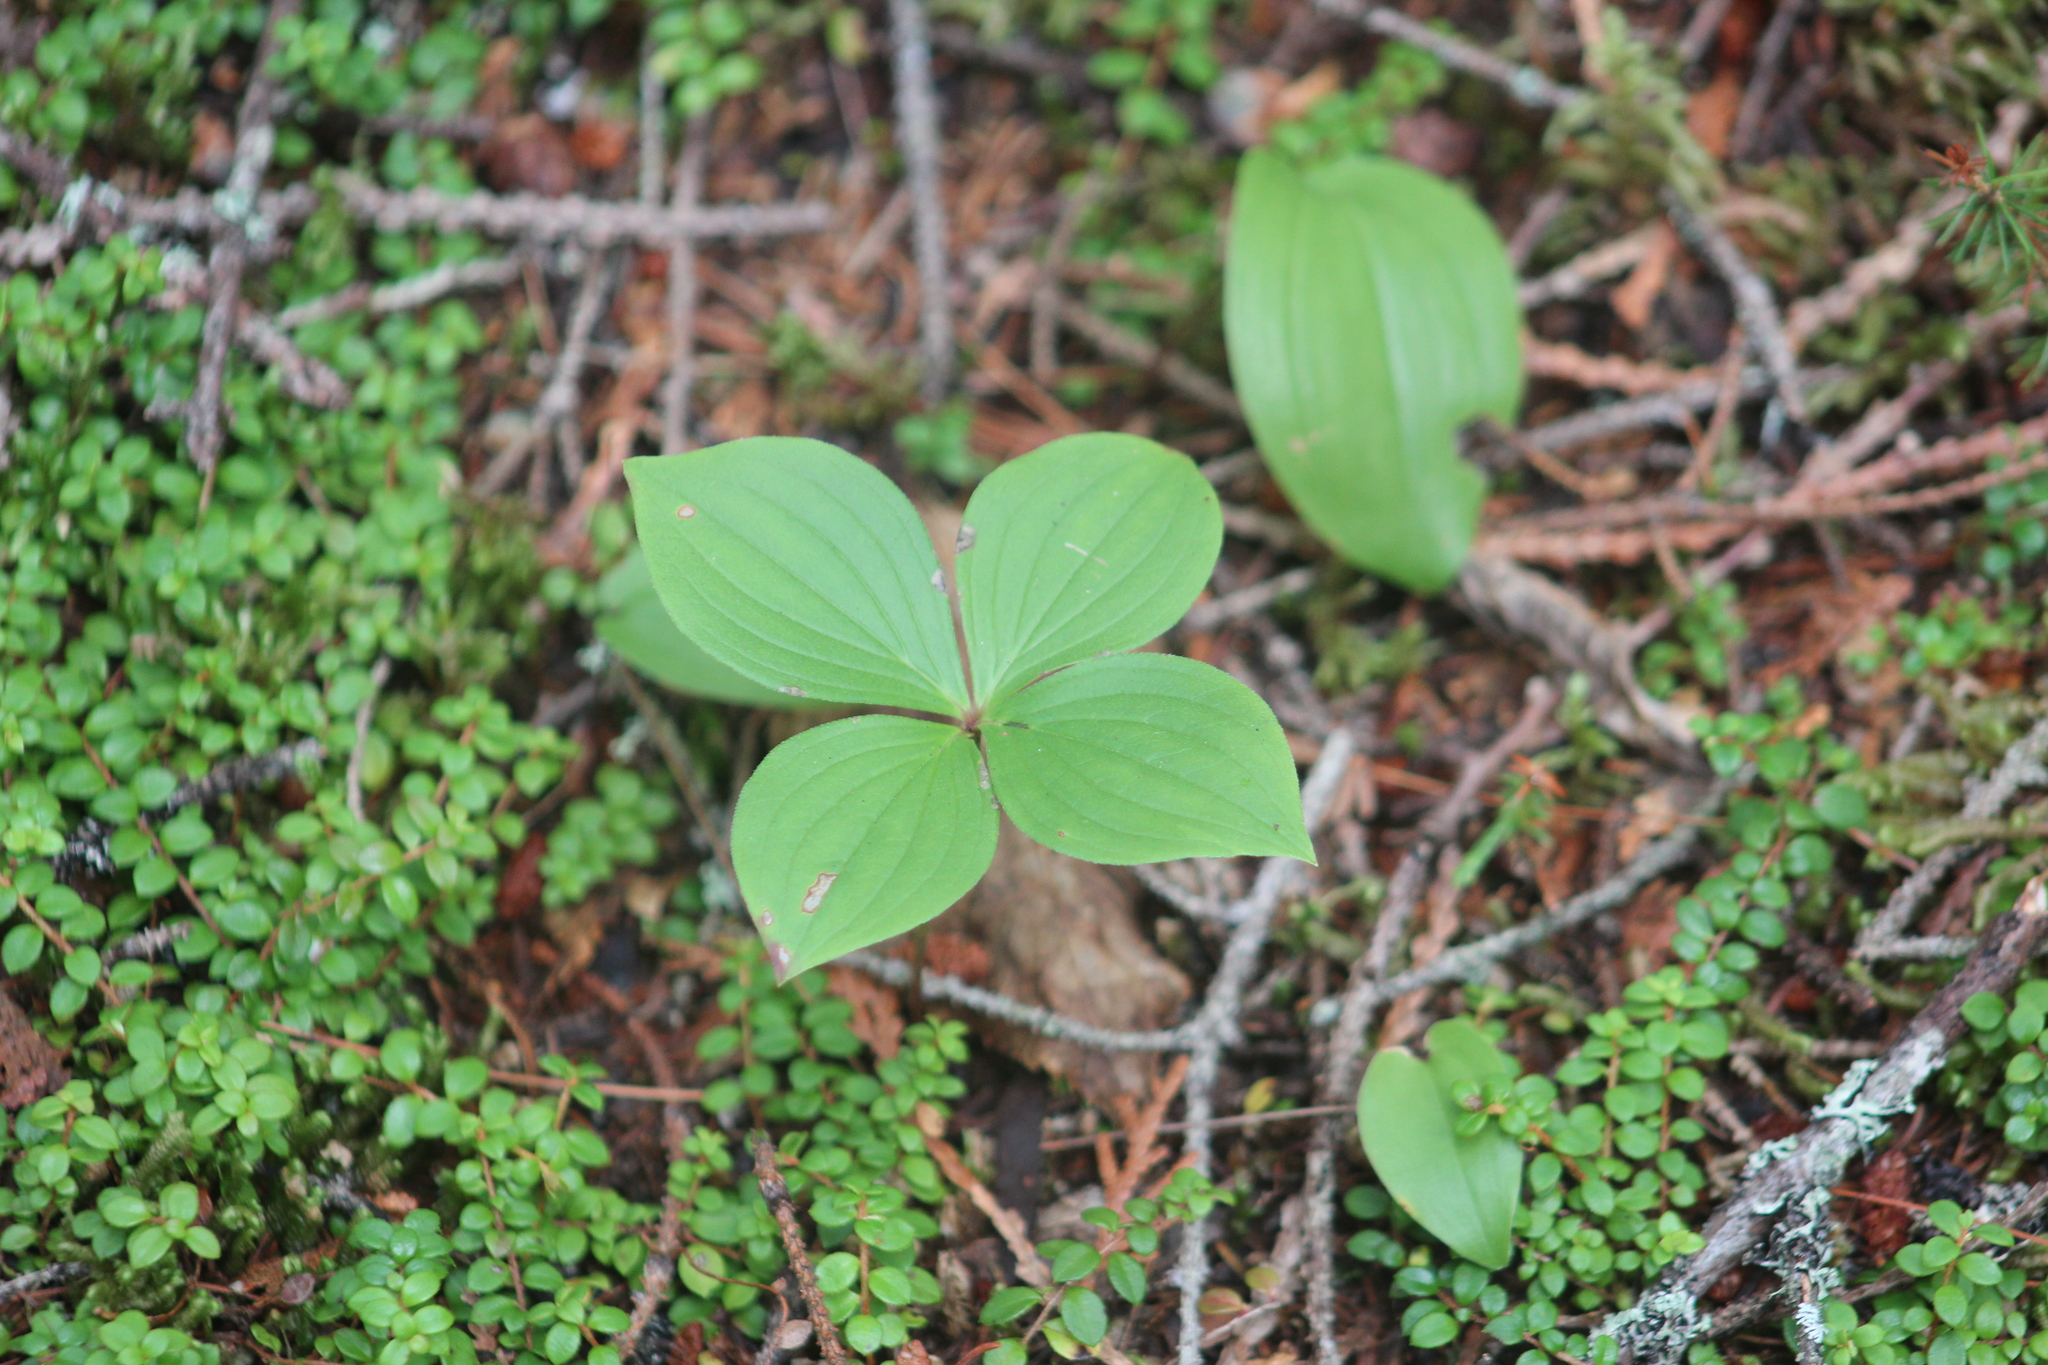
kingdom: Plantae
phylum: Tracheophyta
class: Magnoliopsida
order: Cornales
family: Cornaceae
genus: Cornus
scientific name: Cornus canadensis
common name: Creeping dogwood
